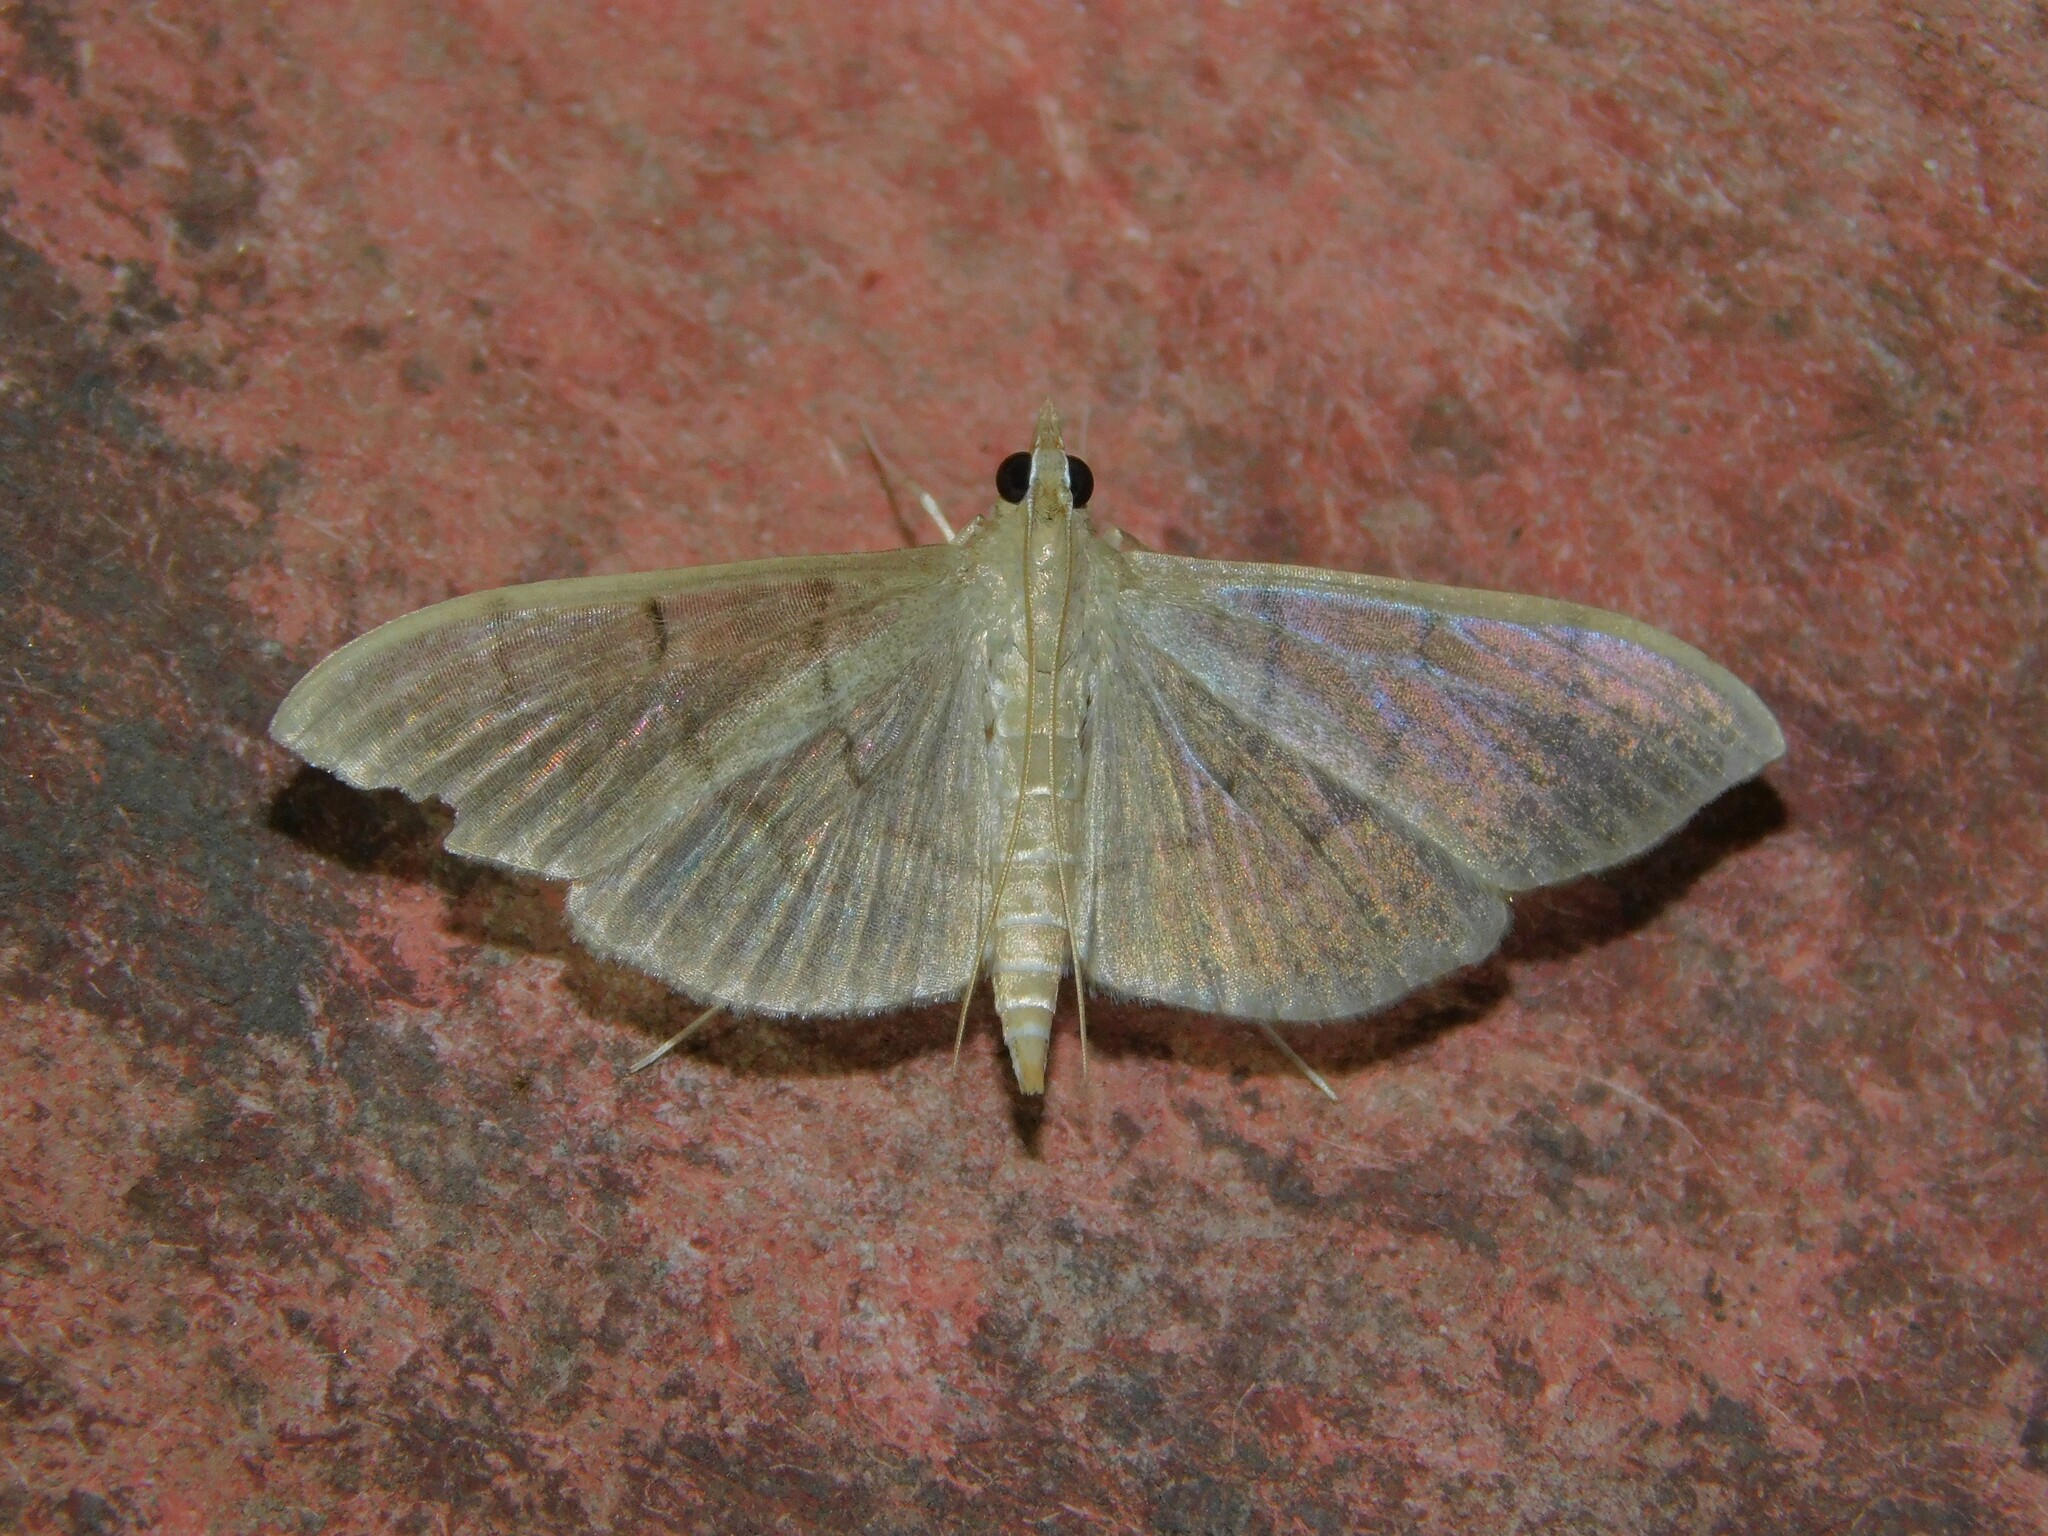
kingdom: Animalia
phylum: Arthropoda
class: Insecta
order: Lepidoptera
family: Crambidae
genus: Lamprophaia
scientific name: Lamprophaia ablactalis
